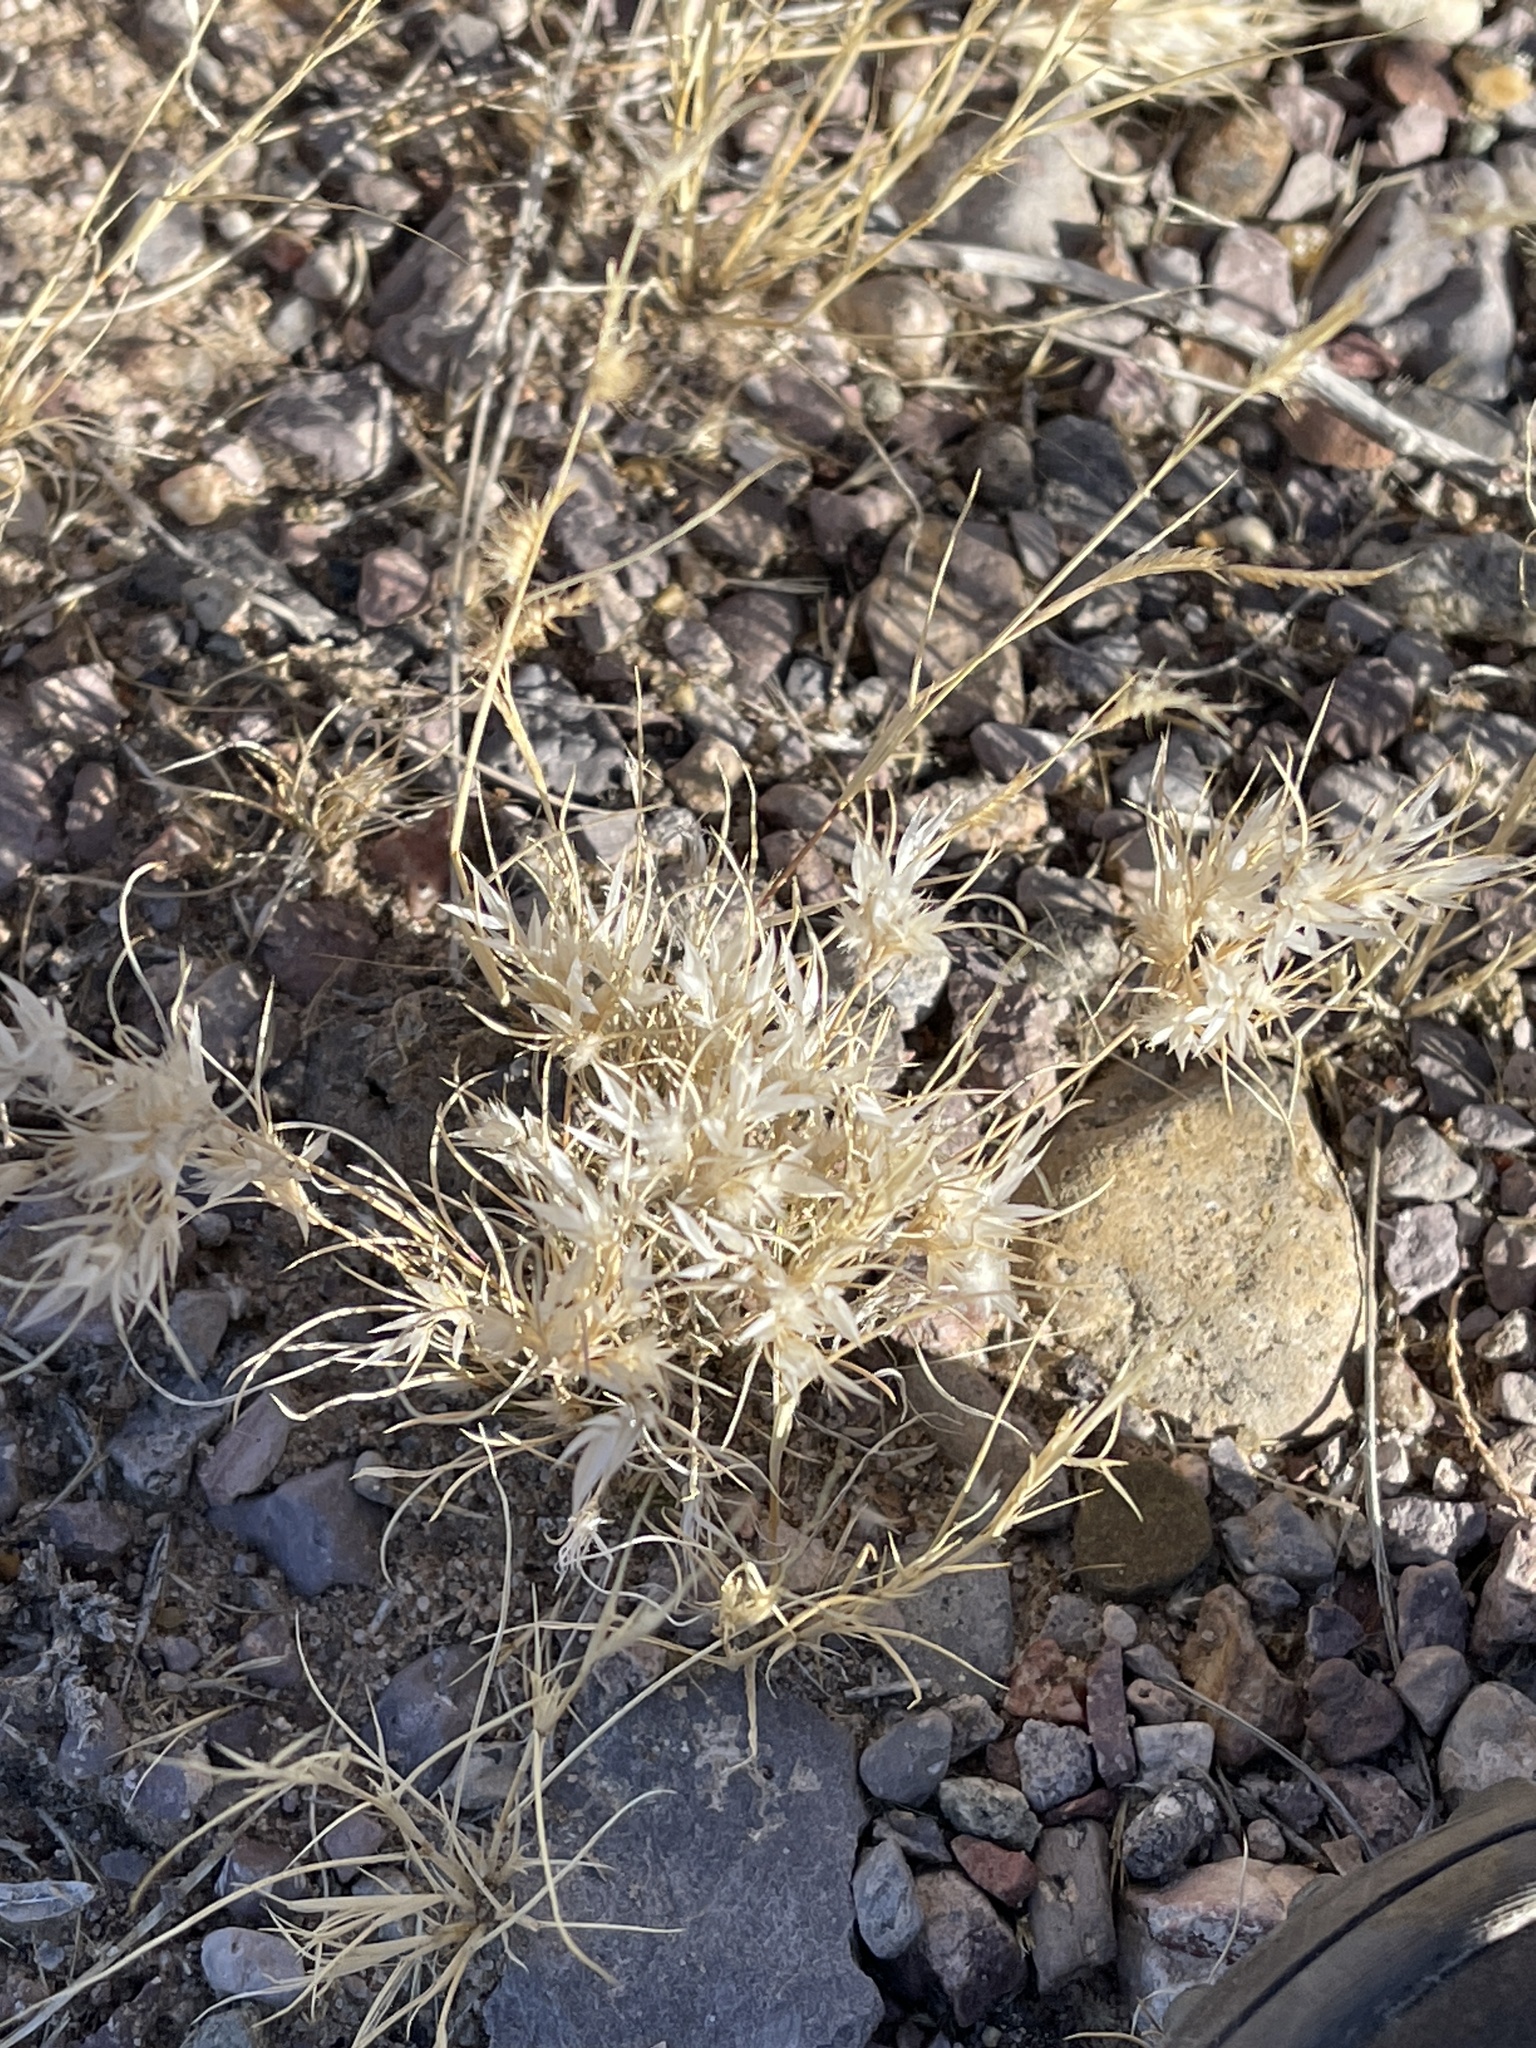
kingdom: Plantae
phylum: Tracheophyta
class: Liliopsida
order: Poales
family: Poaceae
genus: Dasyochloa
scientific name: Dasyochloa pulchella
